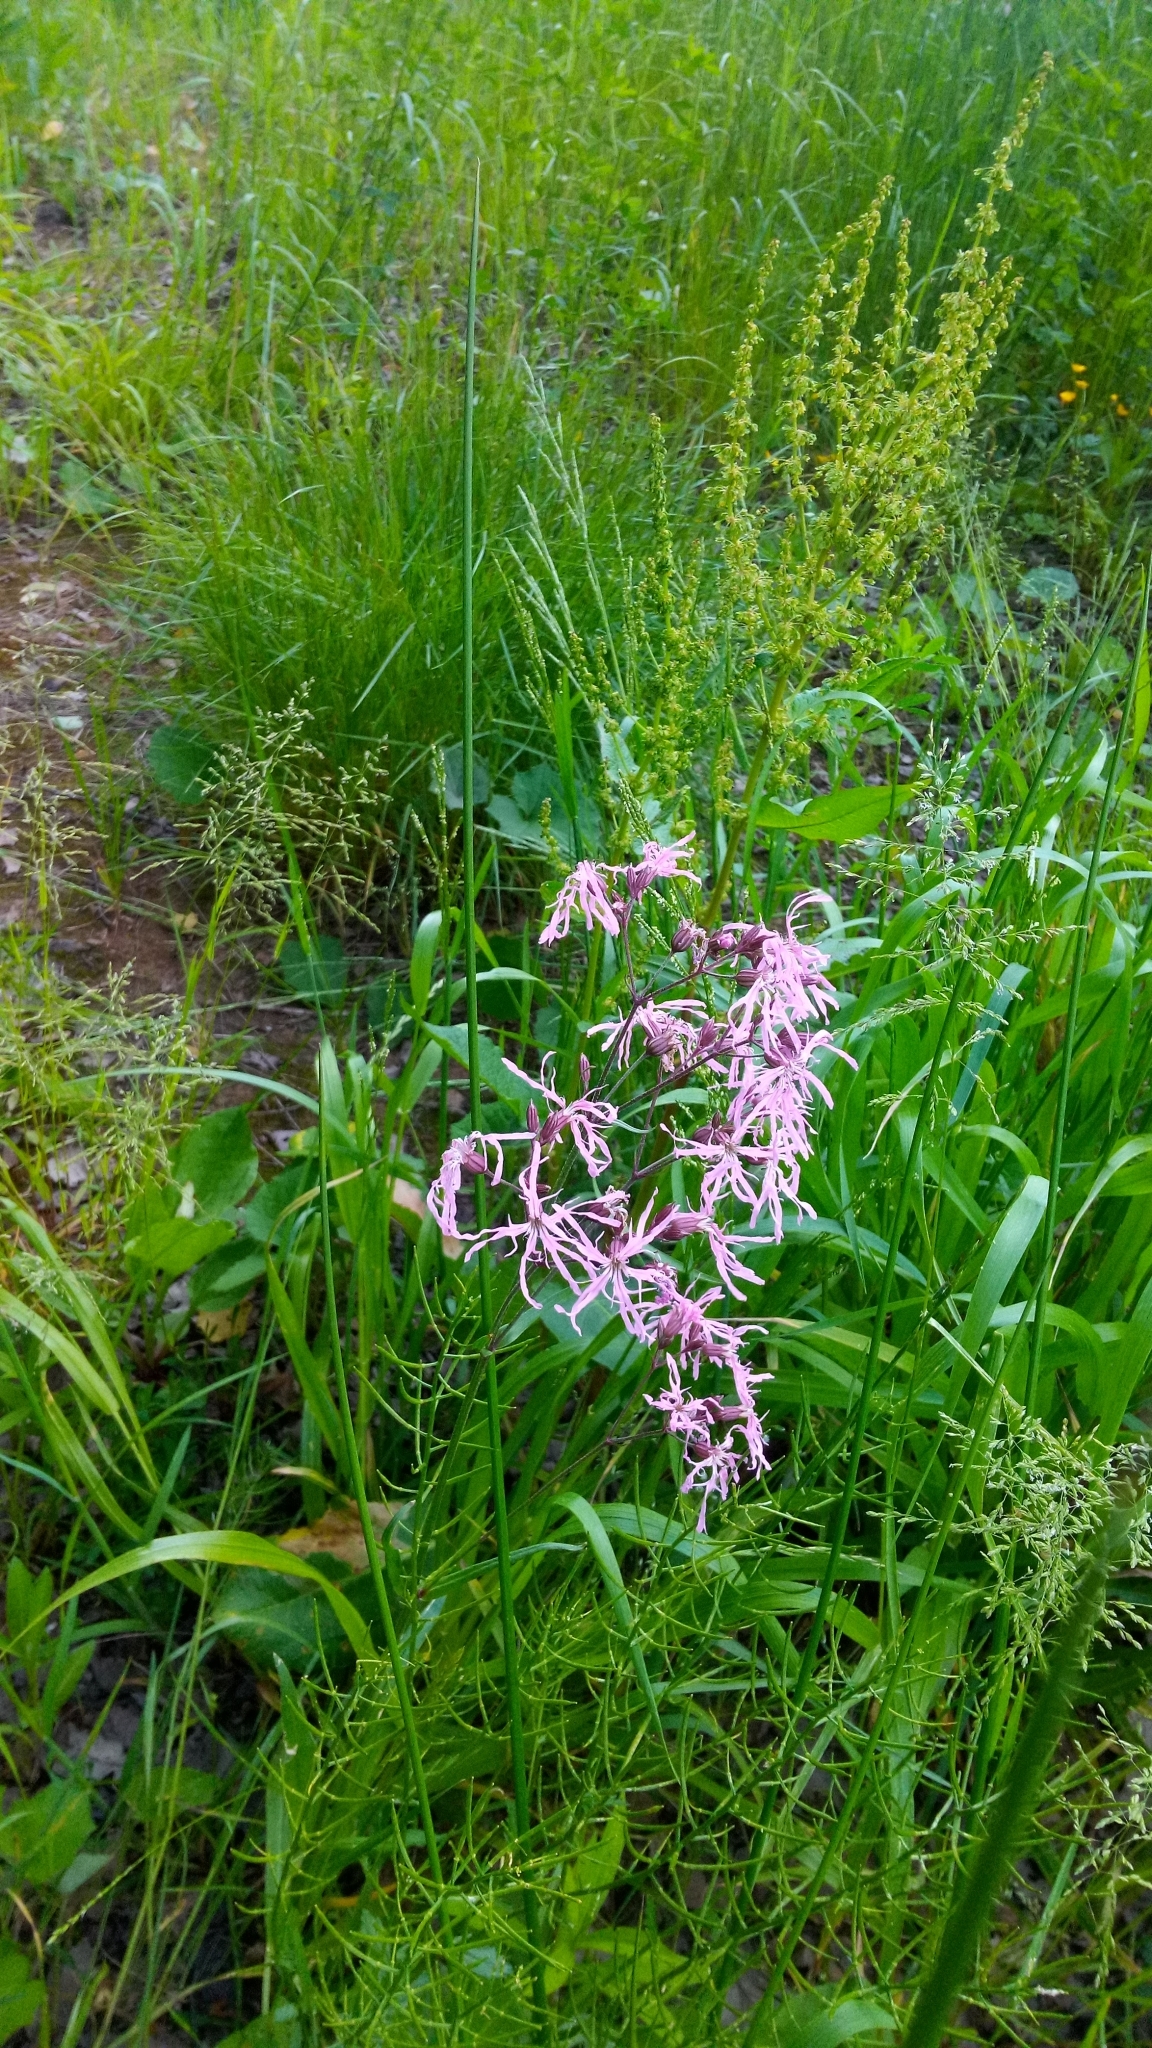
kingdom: Plantae
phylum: Tracheophyta
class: Magnoliopsida
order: Caryophyllales
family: Caryophyllaceae
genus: Silene
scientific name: Silene flos-cuculi
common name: Ragged-robin
